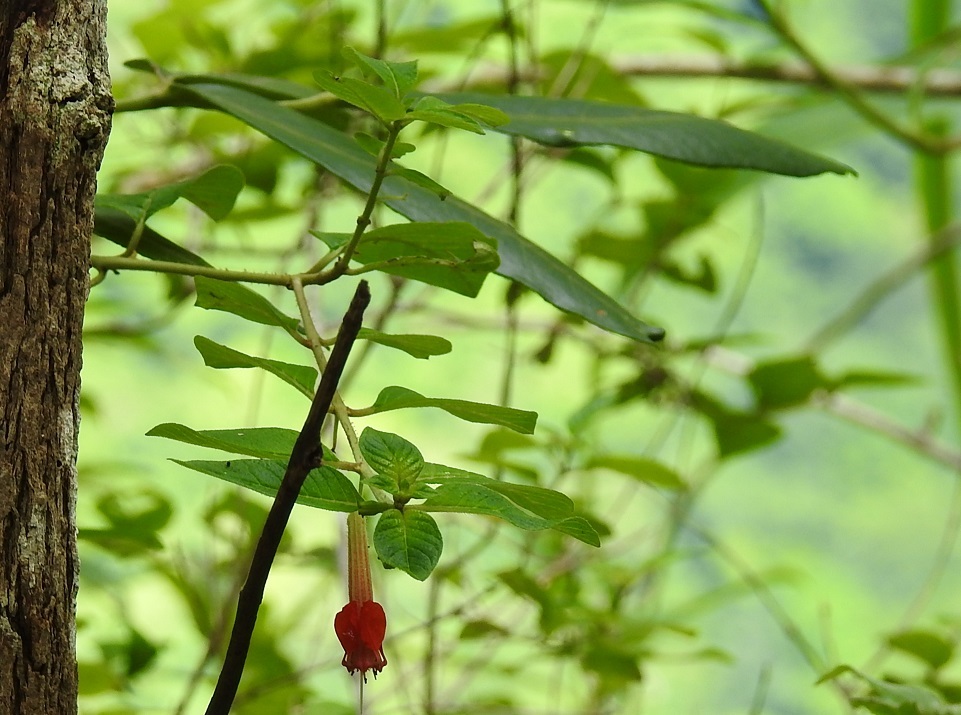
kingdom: Plantae
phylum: Tracheophyta
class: Magnoliopsida
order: Myrtales
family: Lythraceae
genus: Cuphea
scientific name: Cuphea intermedia
